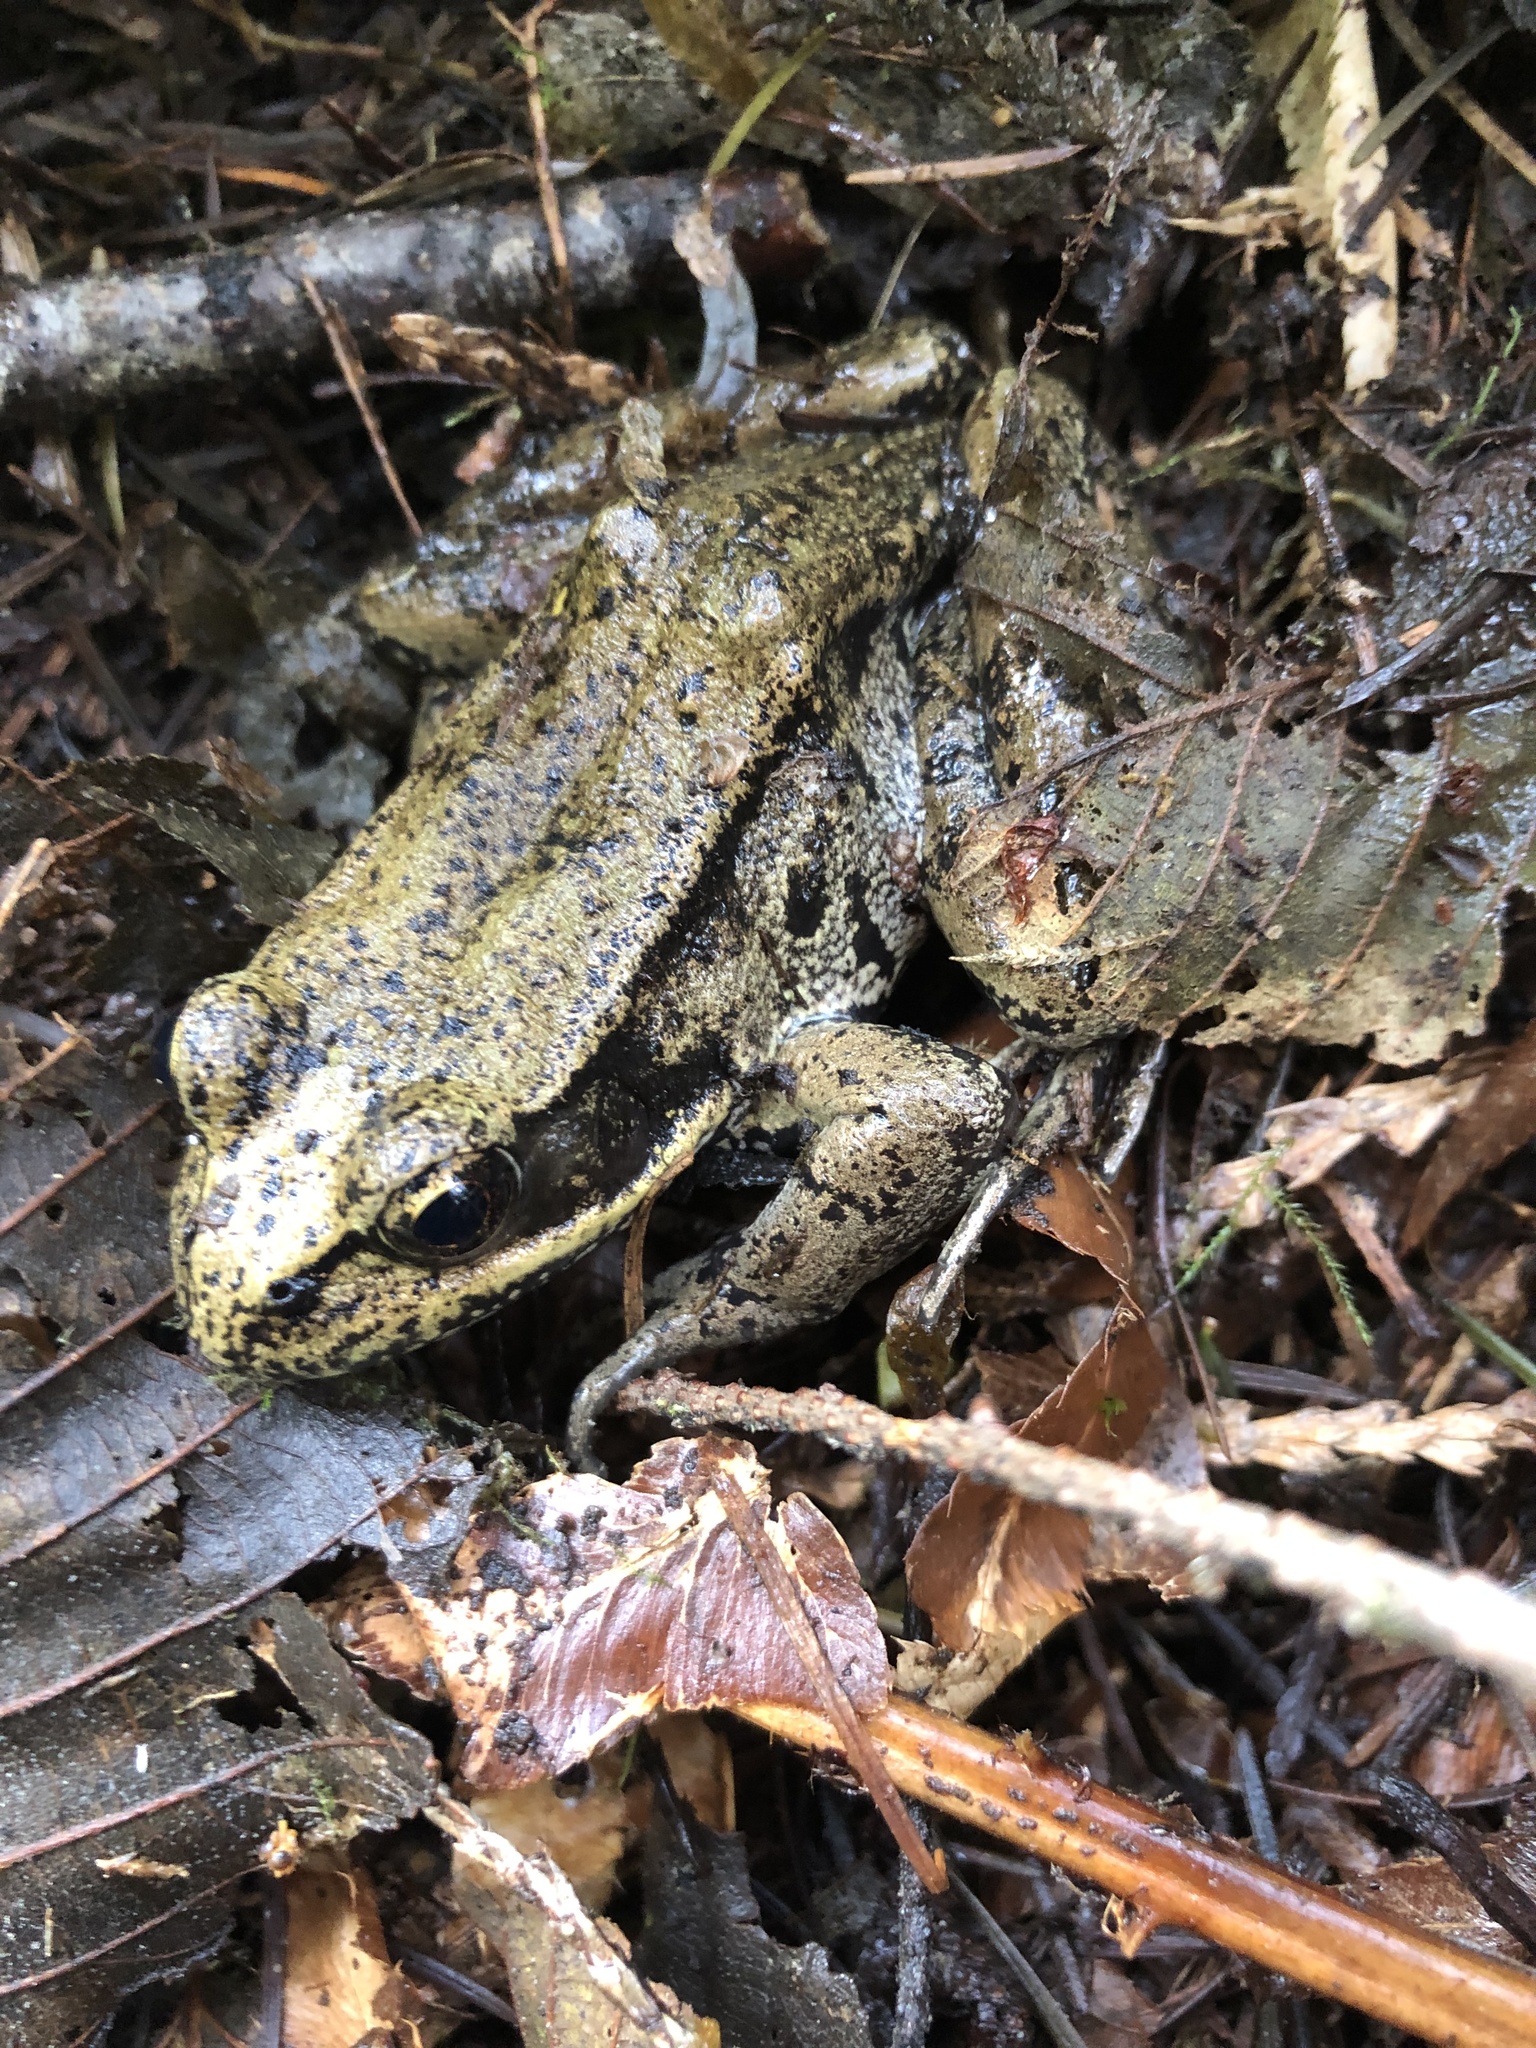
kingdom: Animalia
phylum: Chordata
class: Amphibia
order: Anura
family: Ranidae
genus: Rana
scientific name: Rana aurora
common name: Red-legged frog
